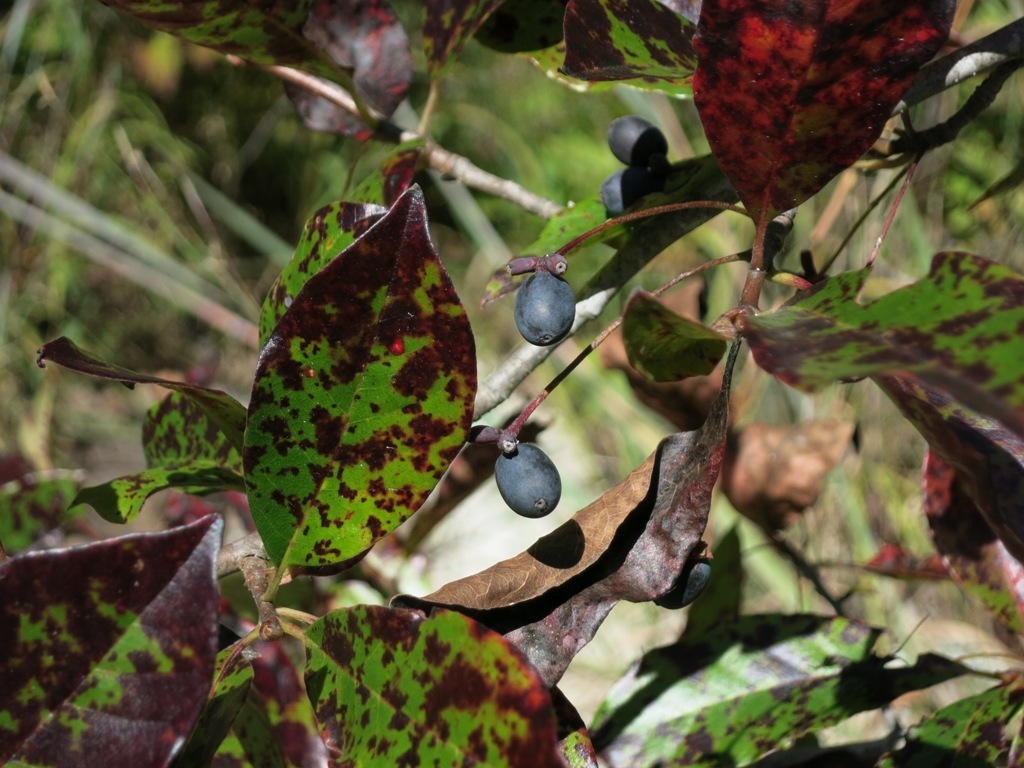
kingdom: Plantae
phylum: Tracheophyta
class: Magnoliopsida
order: Cornales
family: Nyssaceae
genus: Nyssa
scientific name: Nyssa sylvatica
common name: Black tupelo
